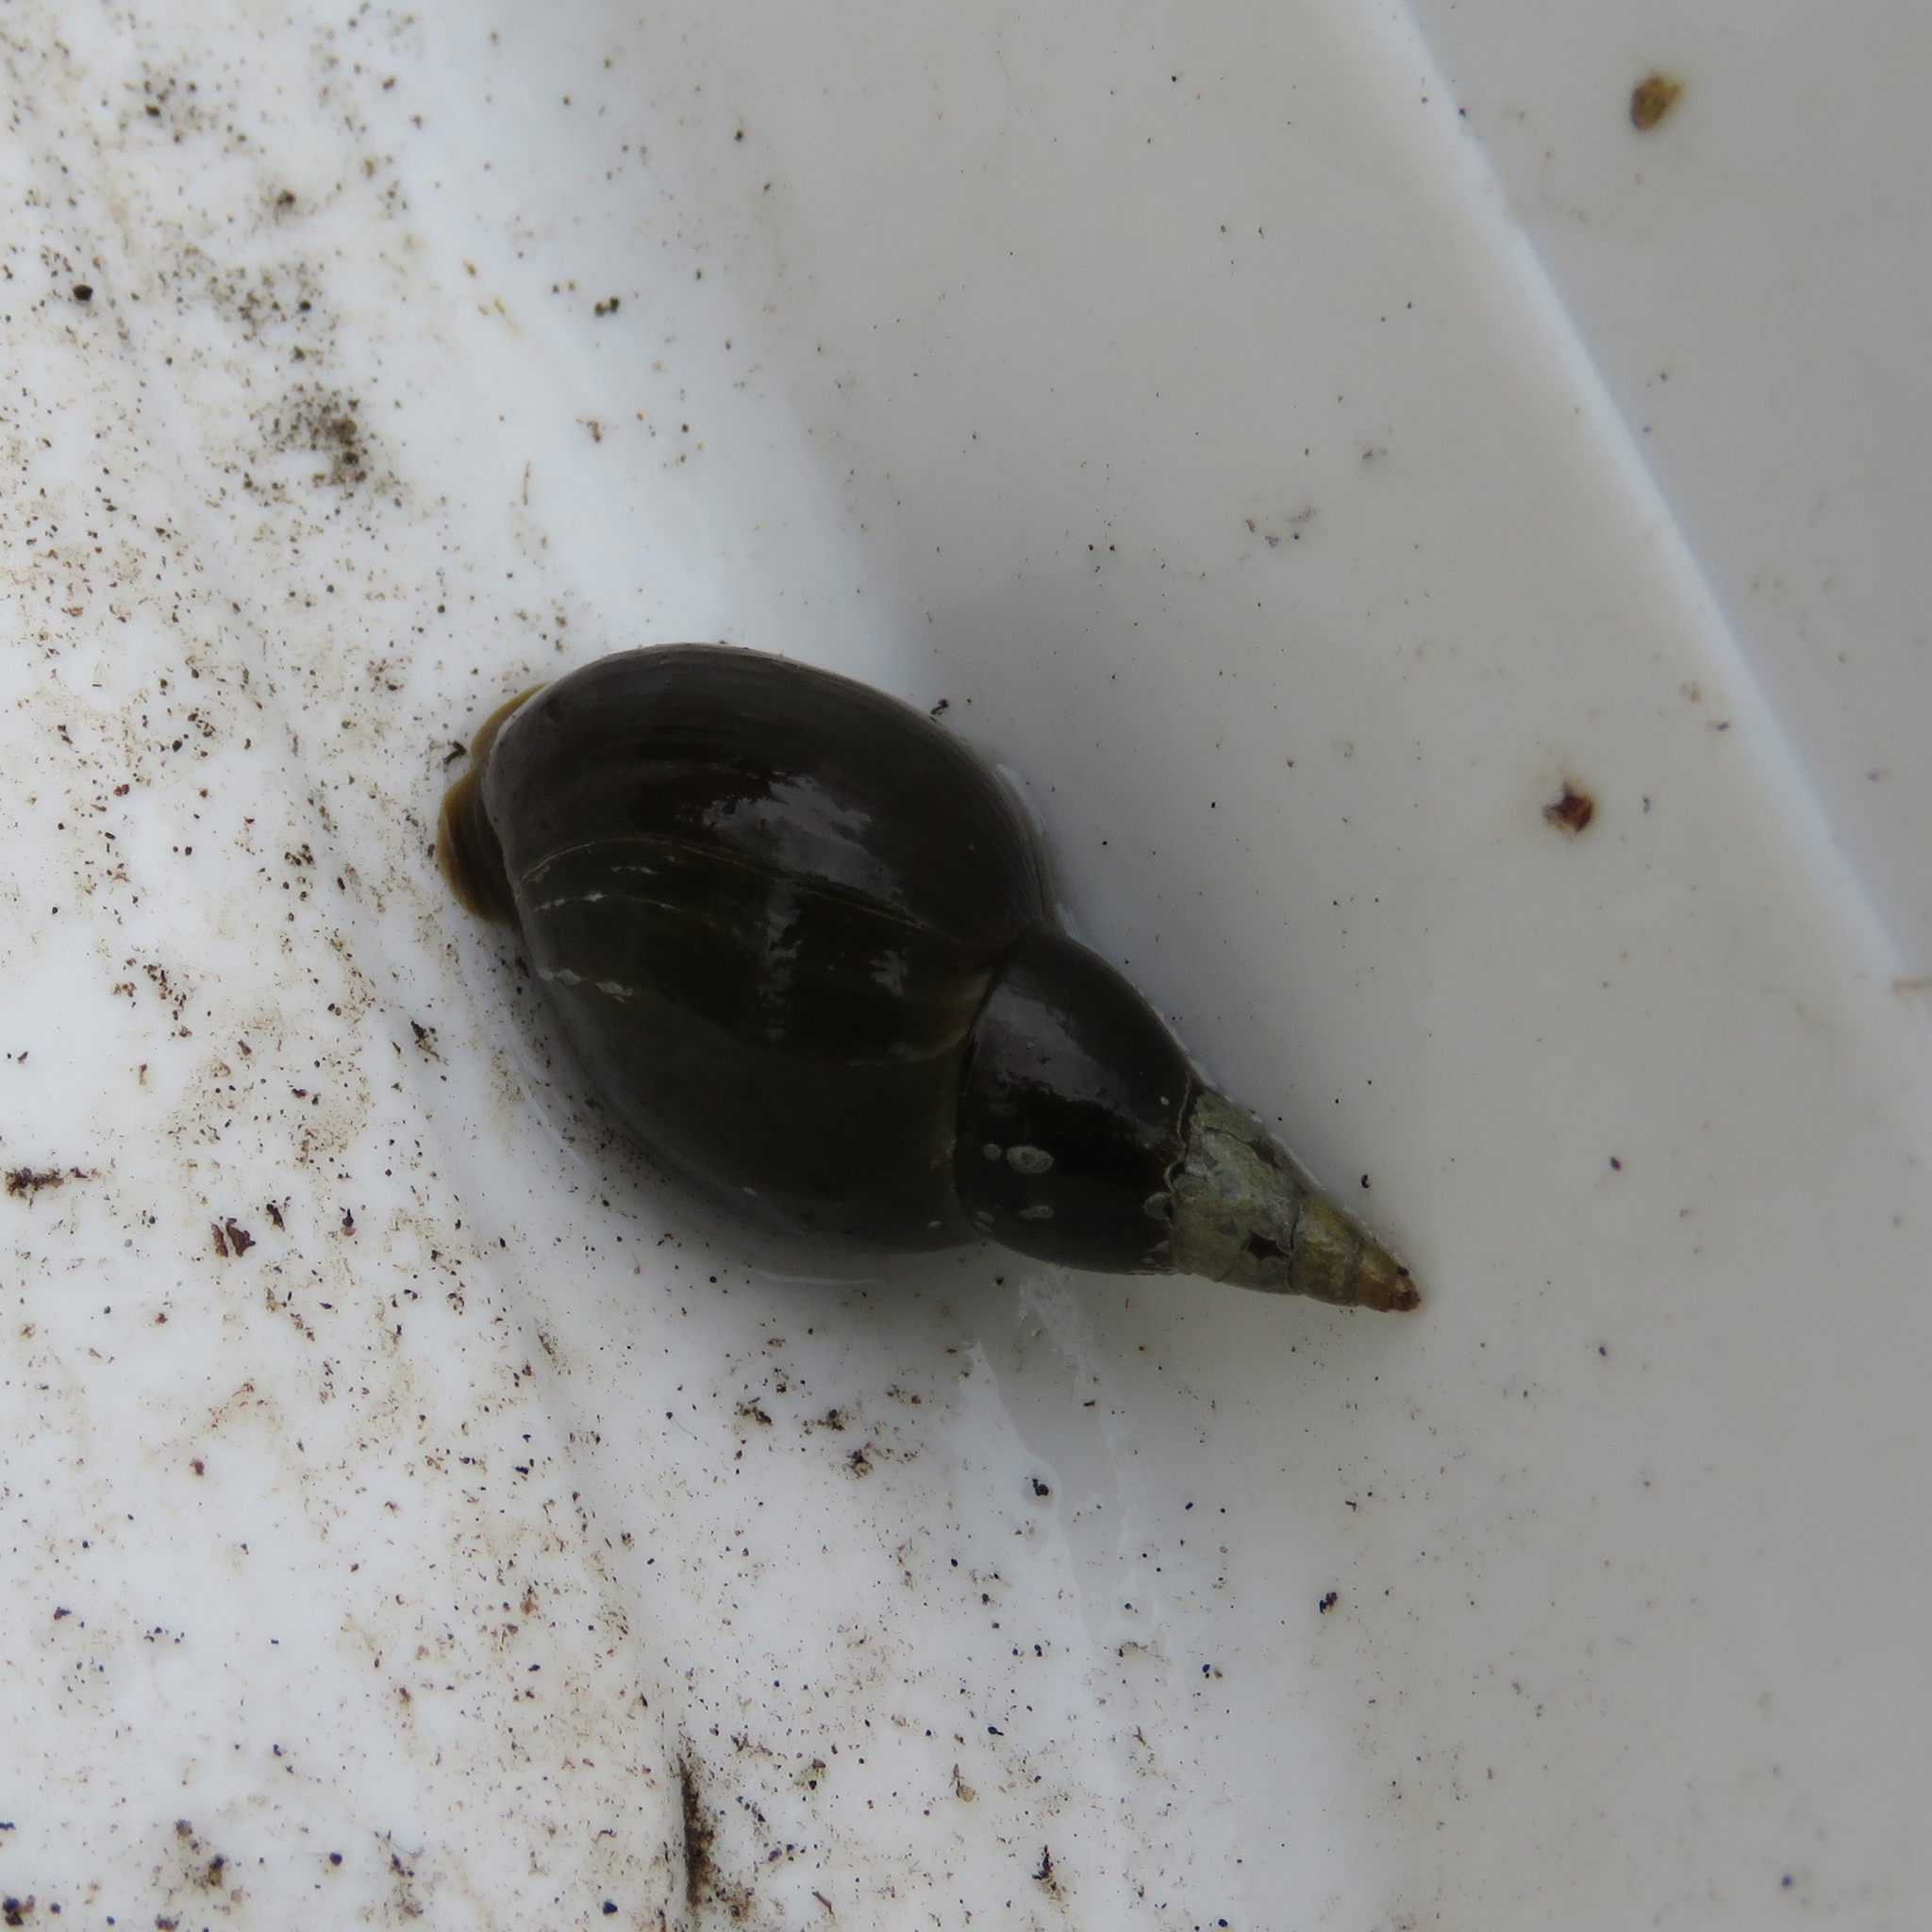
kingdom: Animalia
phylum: Mollusca
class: Gastropoda
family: Lymnaeidae
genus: Lymnaea
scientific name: Lymnaea stagnalis
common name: Great pond snail
